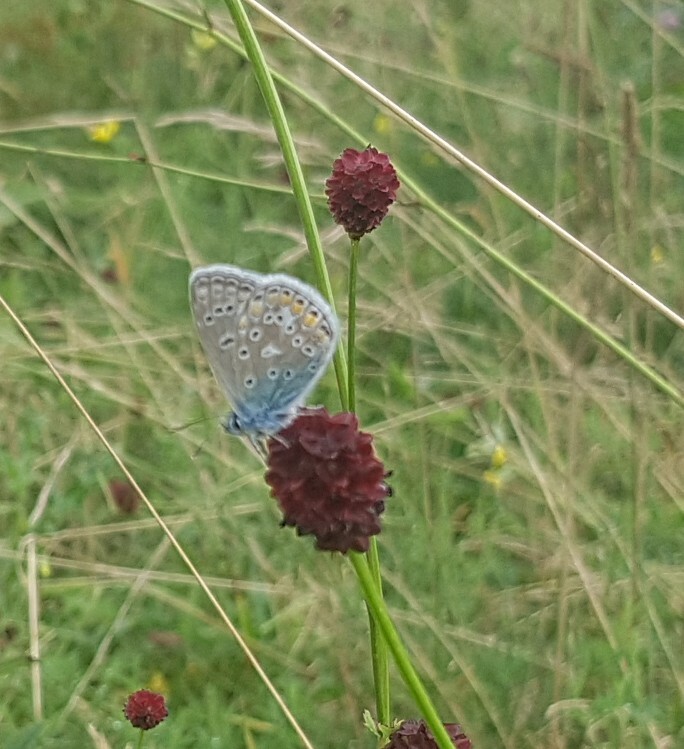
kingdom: Animalia
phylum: Arthropoda
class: Insecta
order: Lepidoptera
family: Lycaenidae
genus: Polyommatus
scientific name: Polyommatus icarus
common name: Common blue
